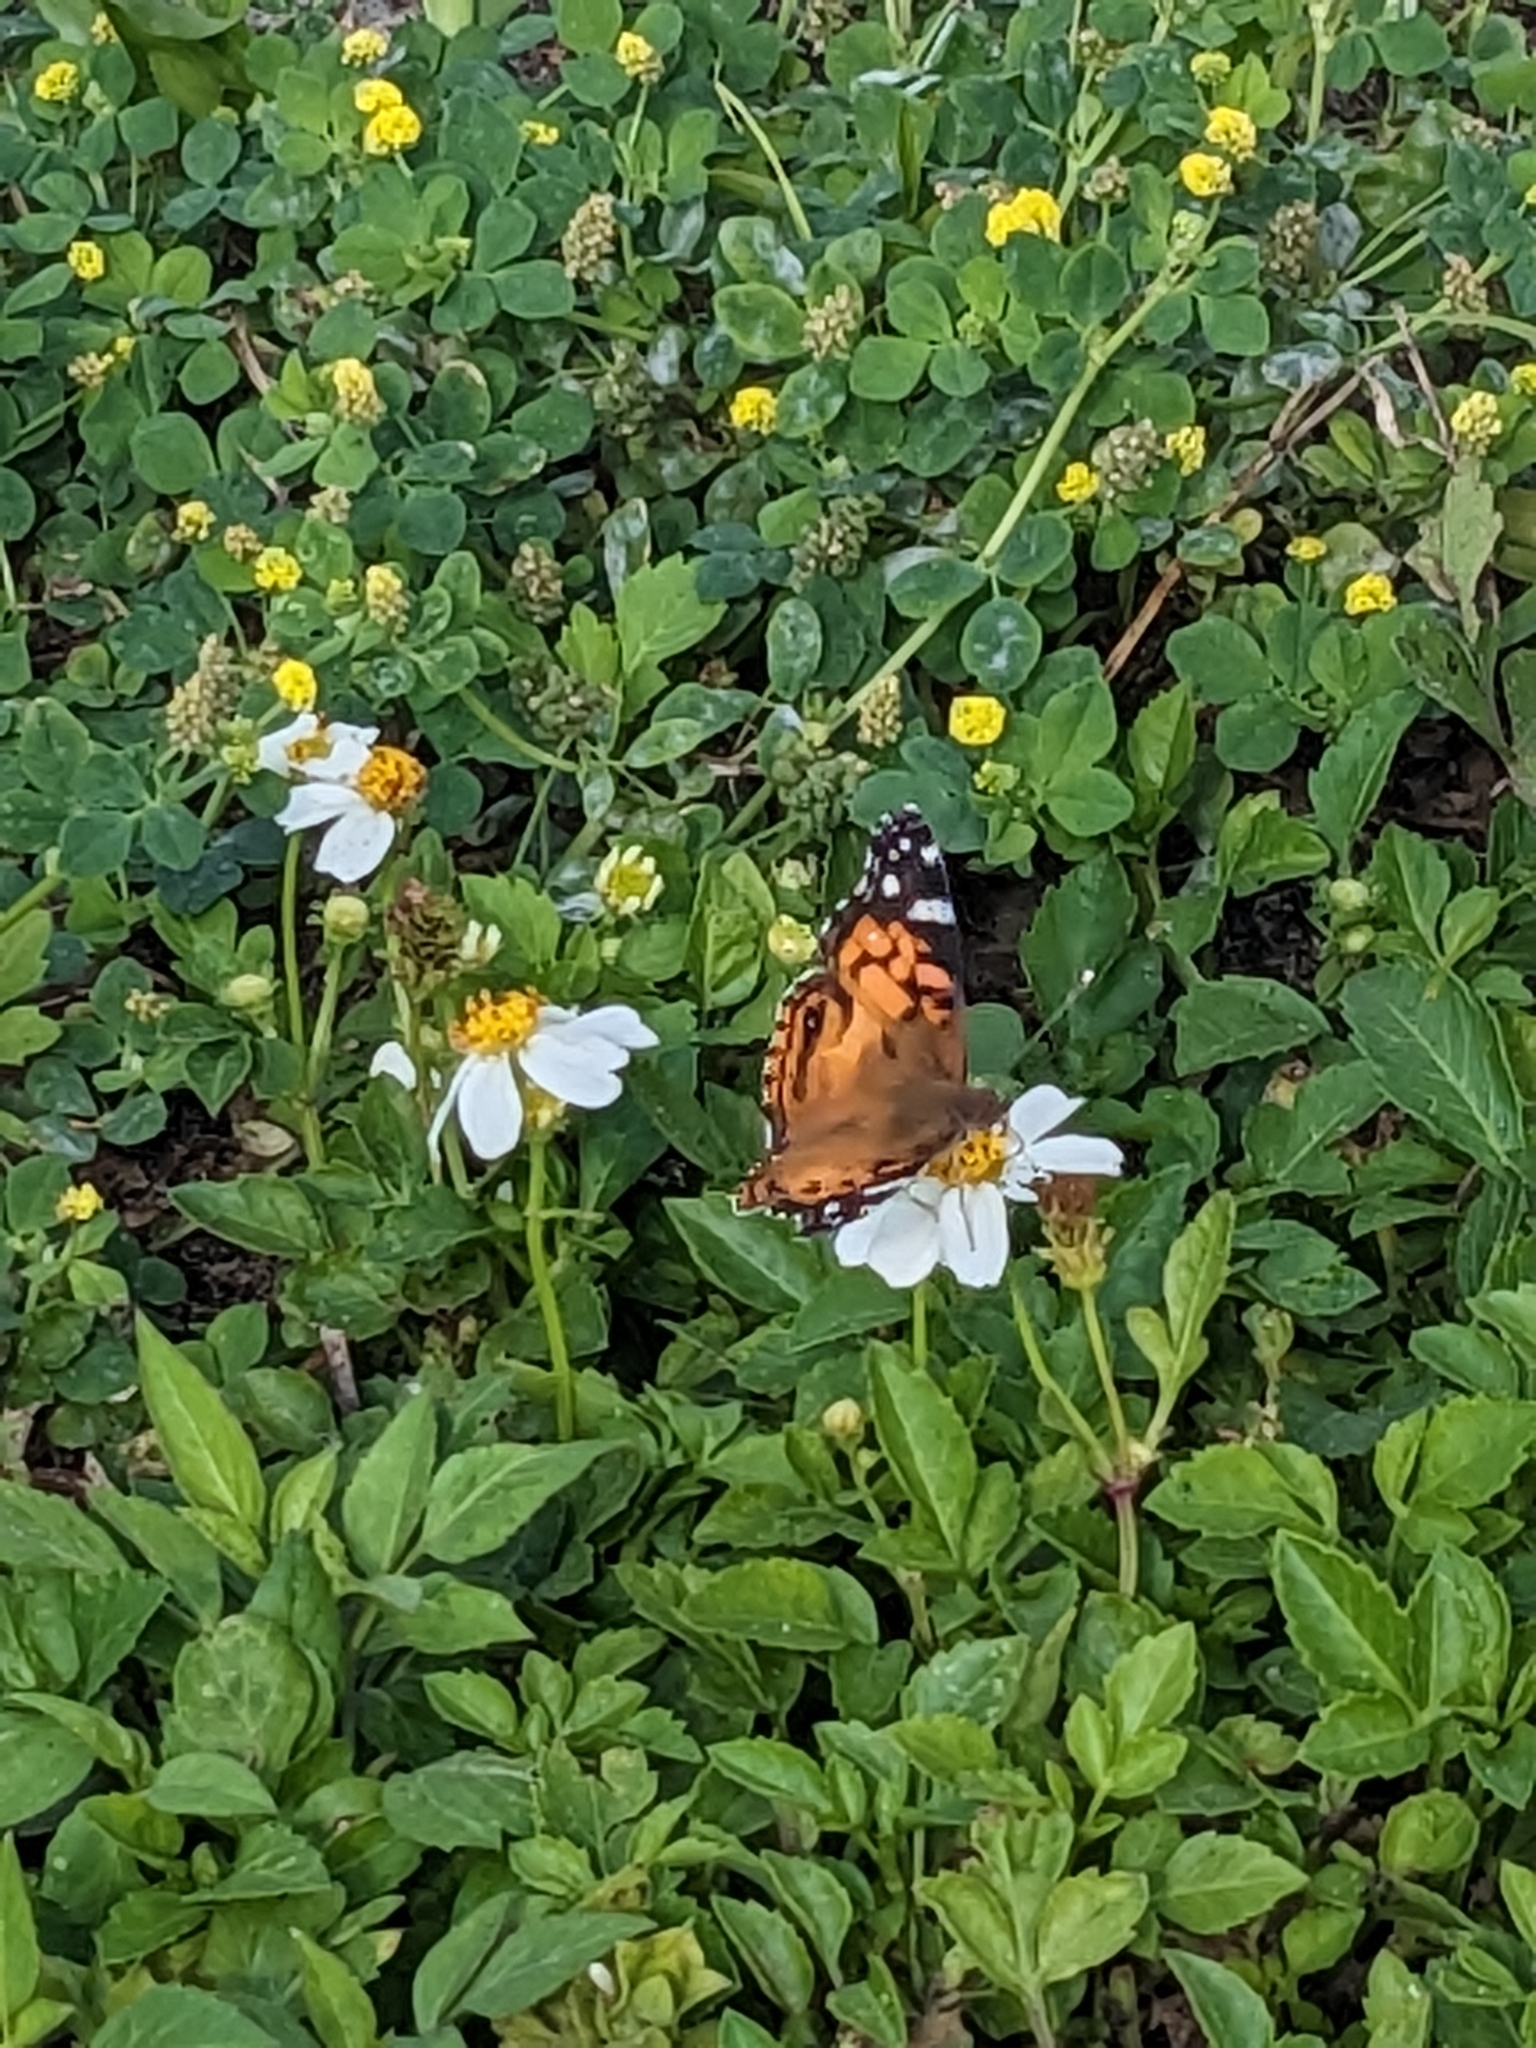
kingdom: Animalia
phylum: Arthropoda
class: Insecta
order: Lepidoptera
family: Nymphalidae
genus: Vanessa
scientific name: Vanessa virginiensis
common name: American lady
